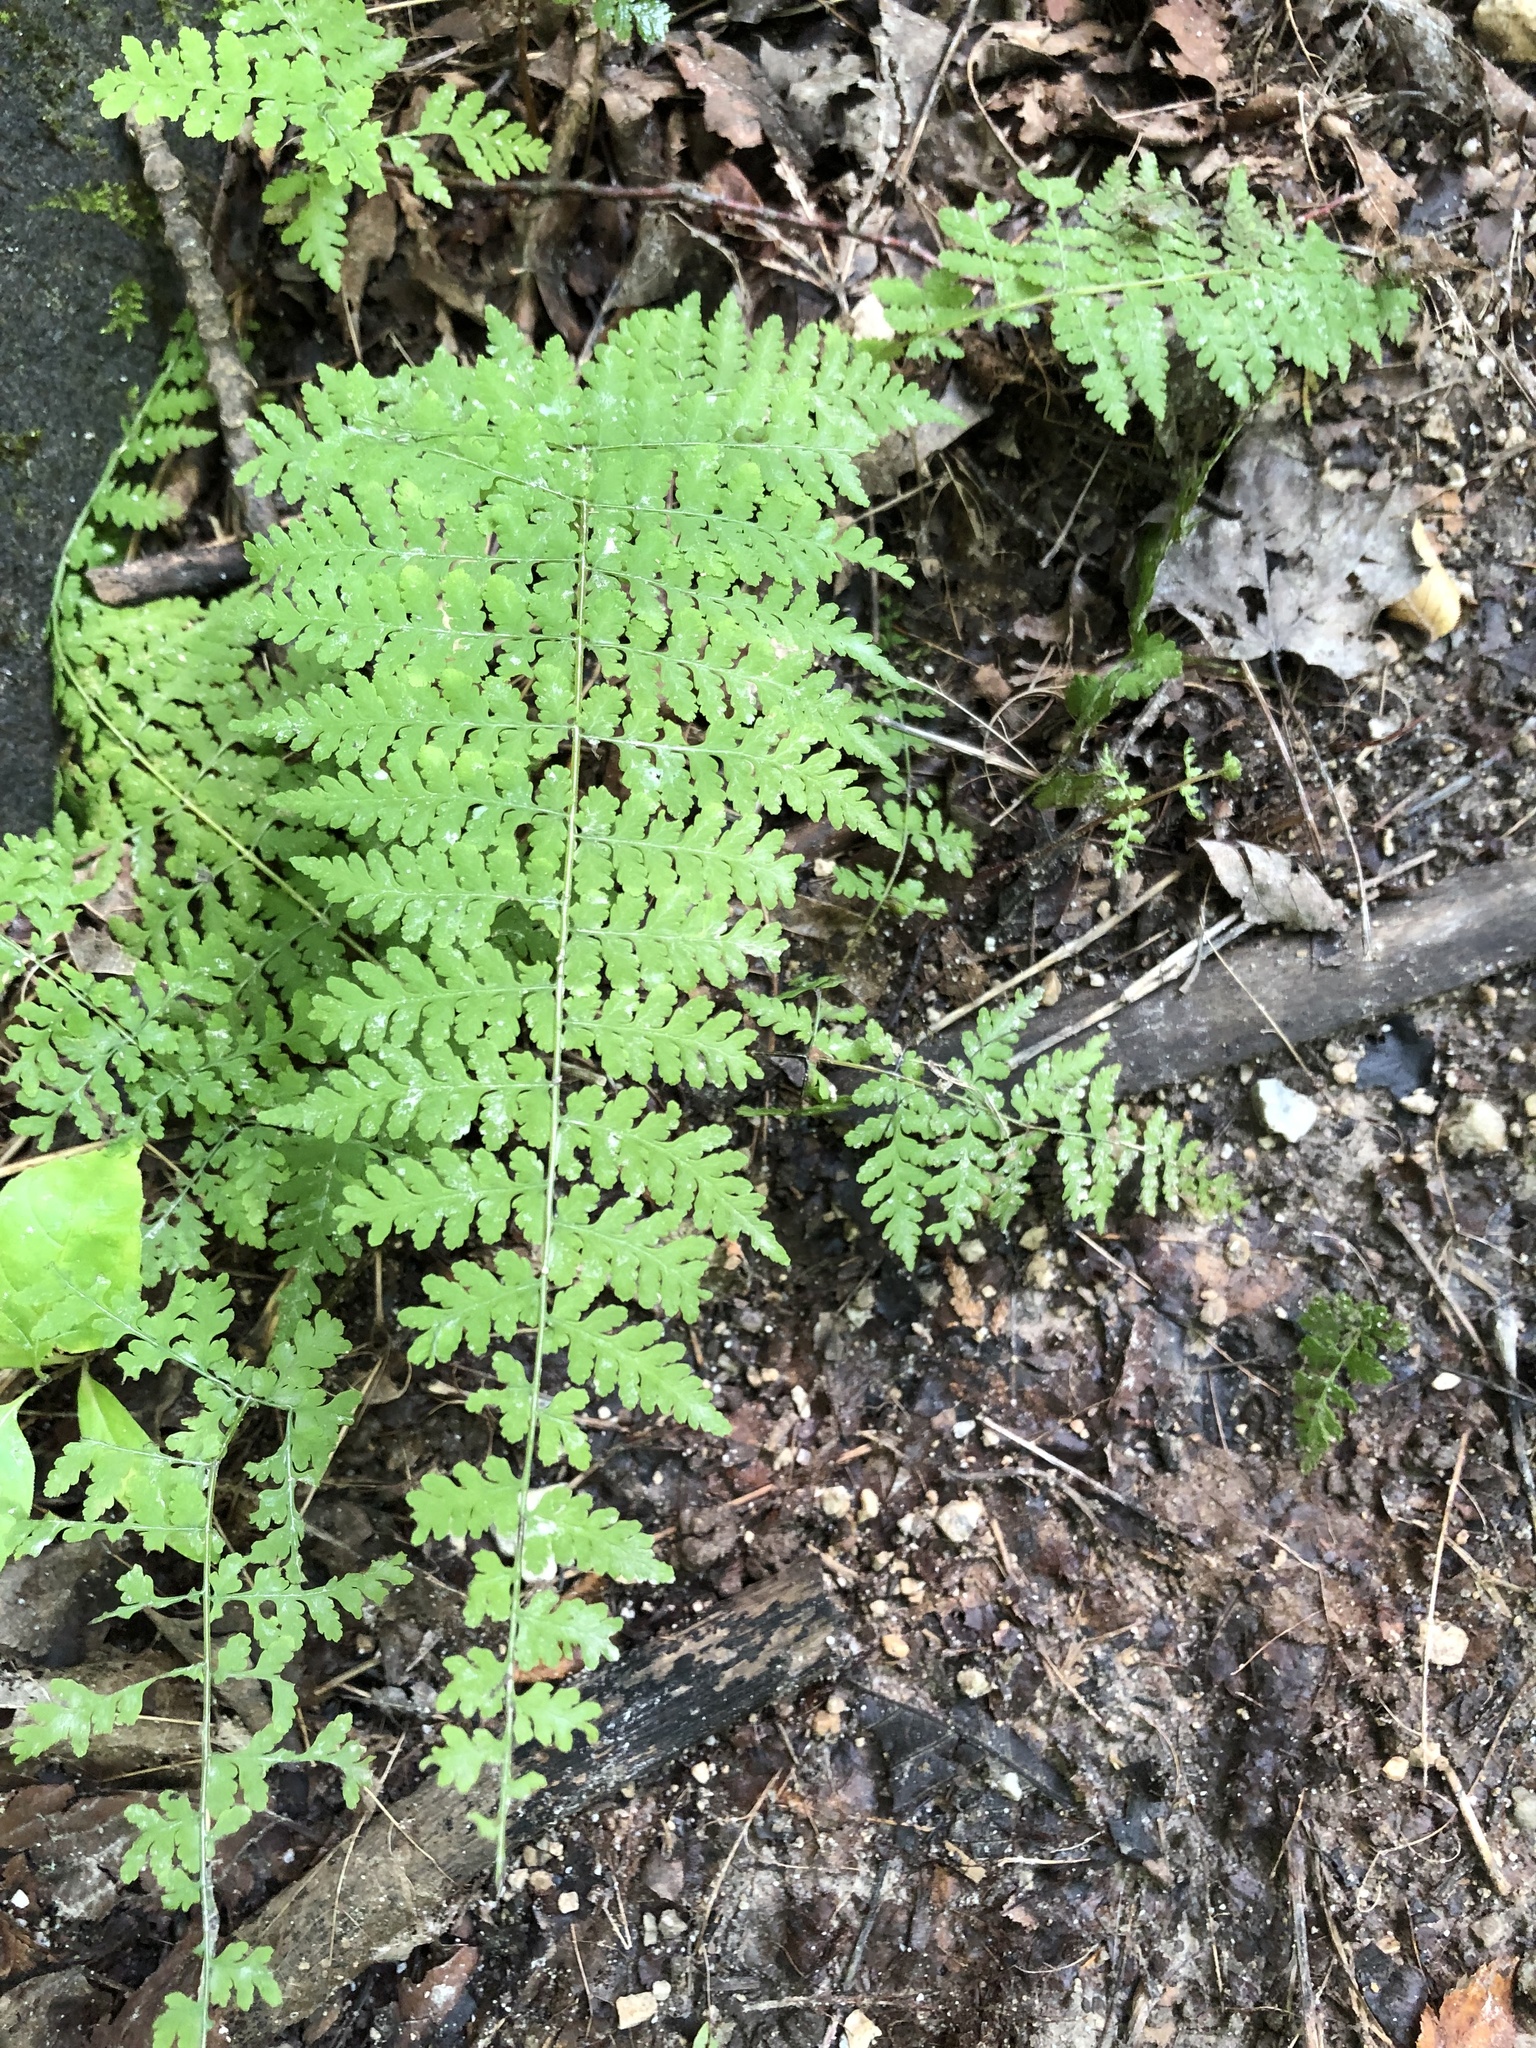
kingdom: Plantae
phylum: Tracheophyta
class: Polypodiopsida
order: Polypodiales
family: Cystopteridaceae
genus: Cystopteris
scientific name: Cystopteris bulbifera
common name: Bulblet bladder fern
